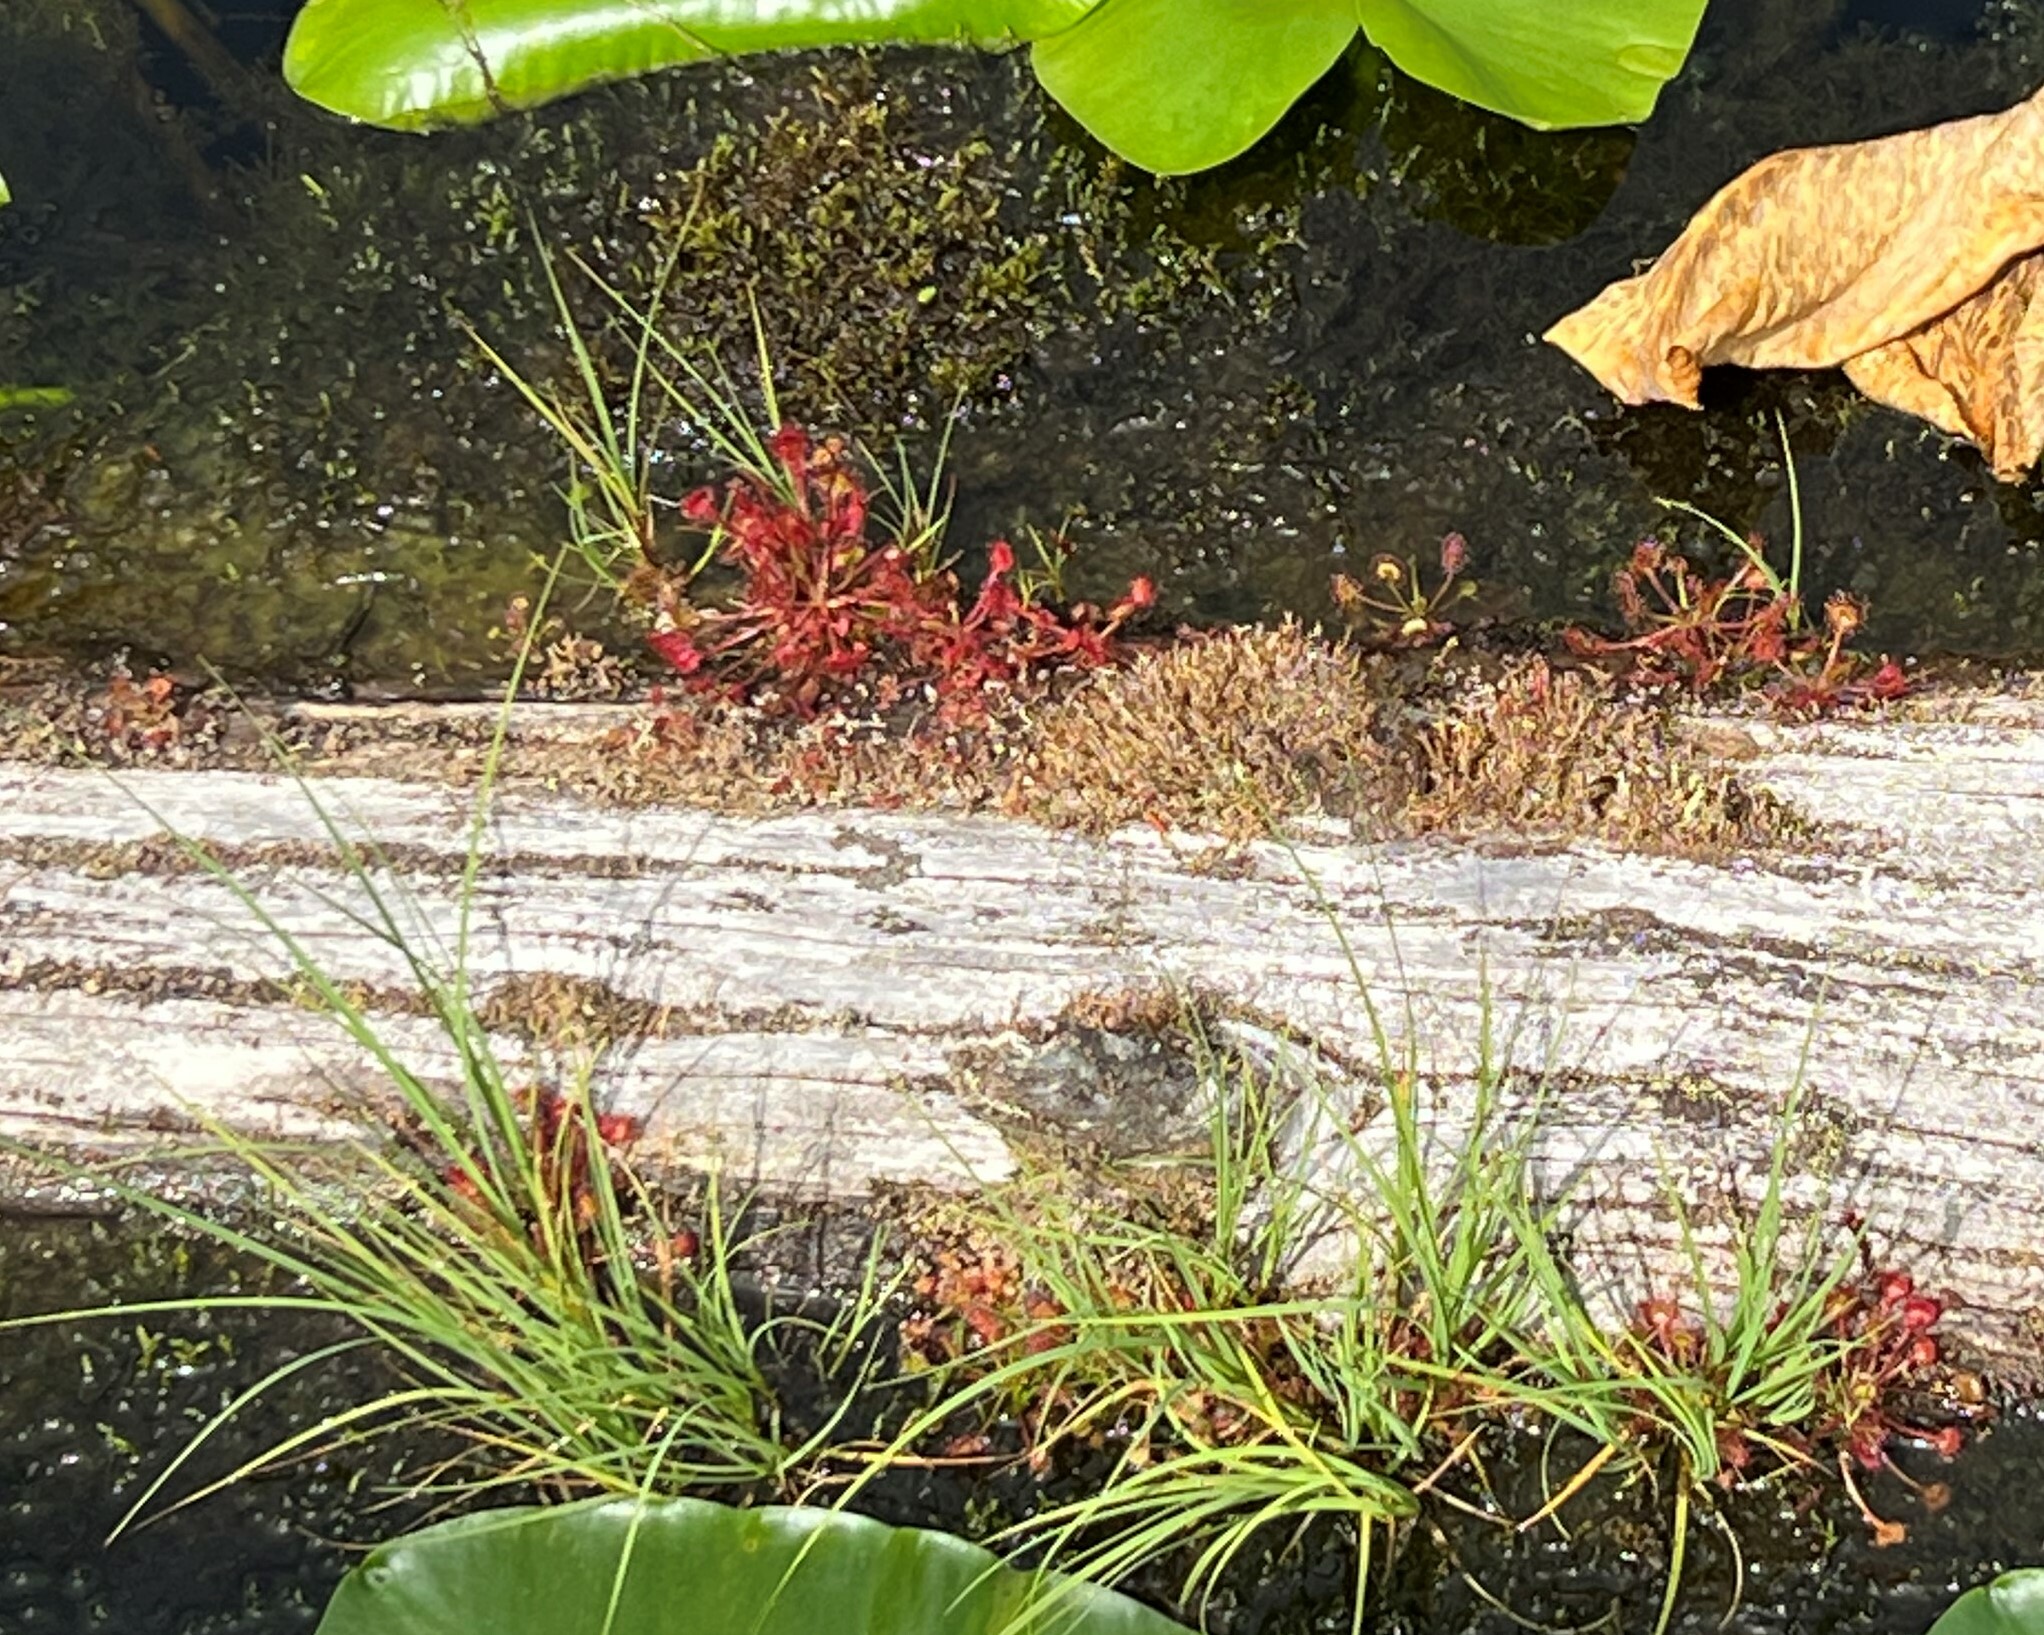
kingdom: Plantae
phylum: Tracheophyta
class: Magnoliopsida
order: Caryophyllales
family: Droseraceae
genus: Drosera
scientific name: Drosera rotundifolia
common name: Round-leaved sundew
